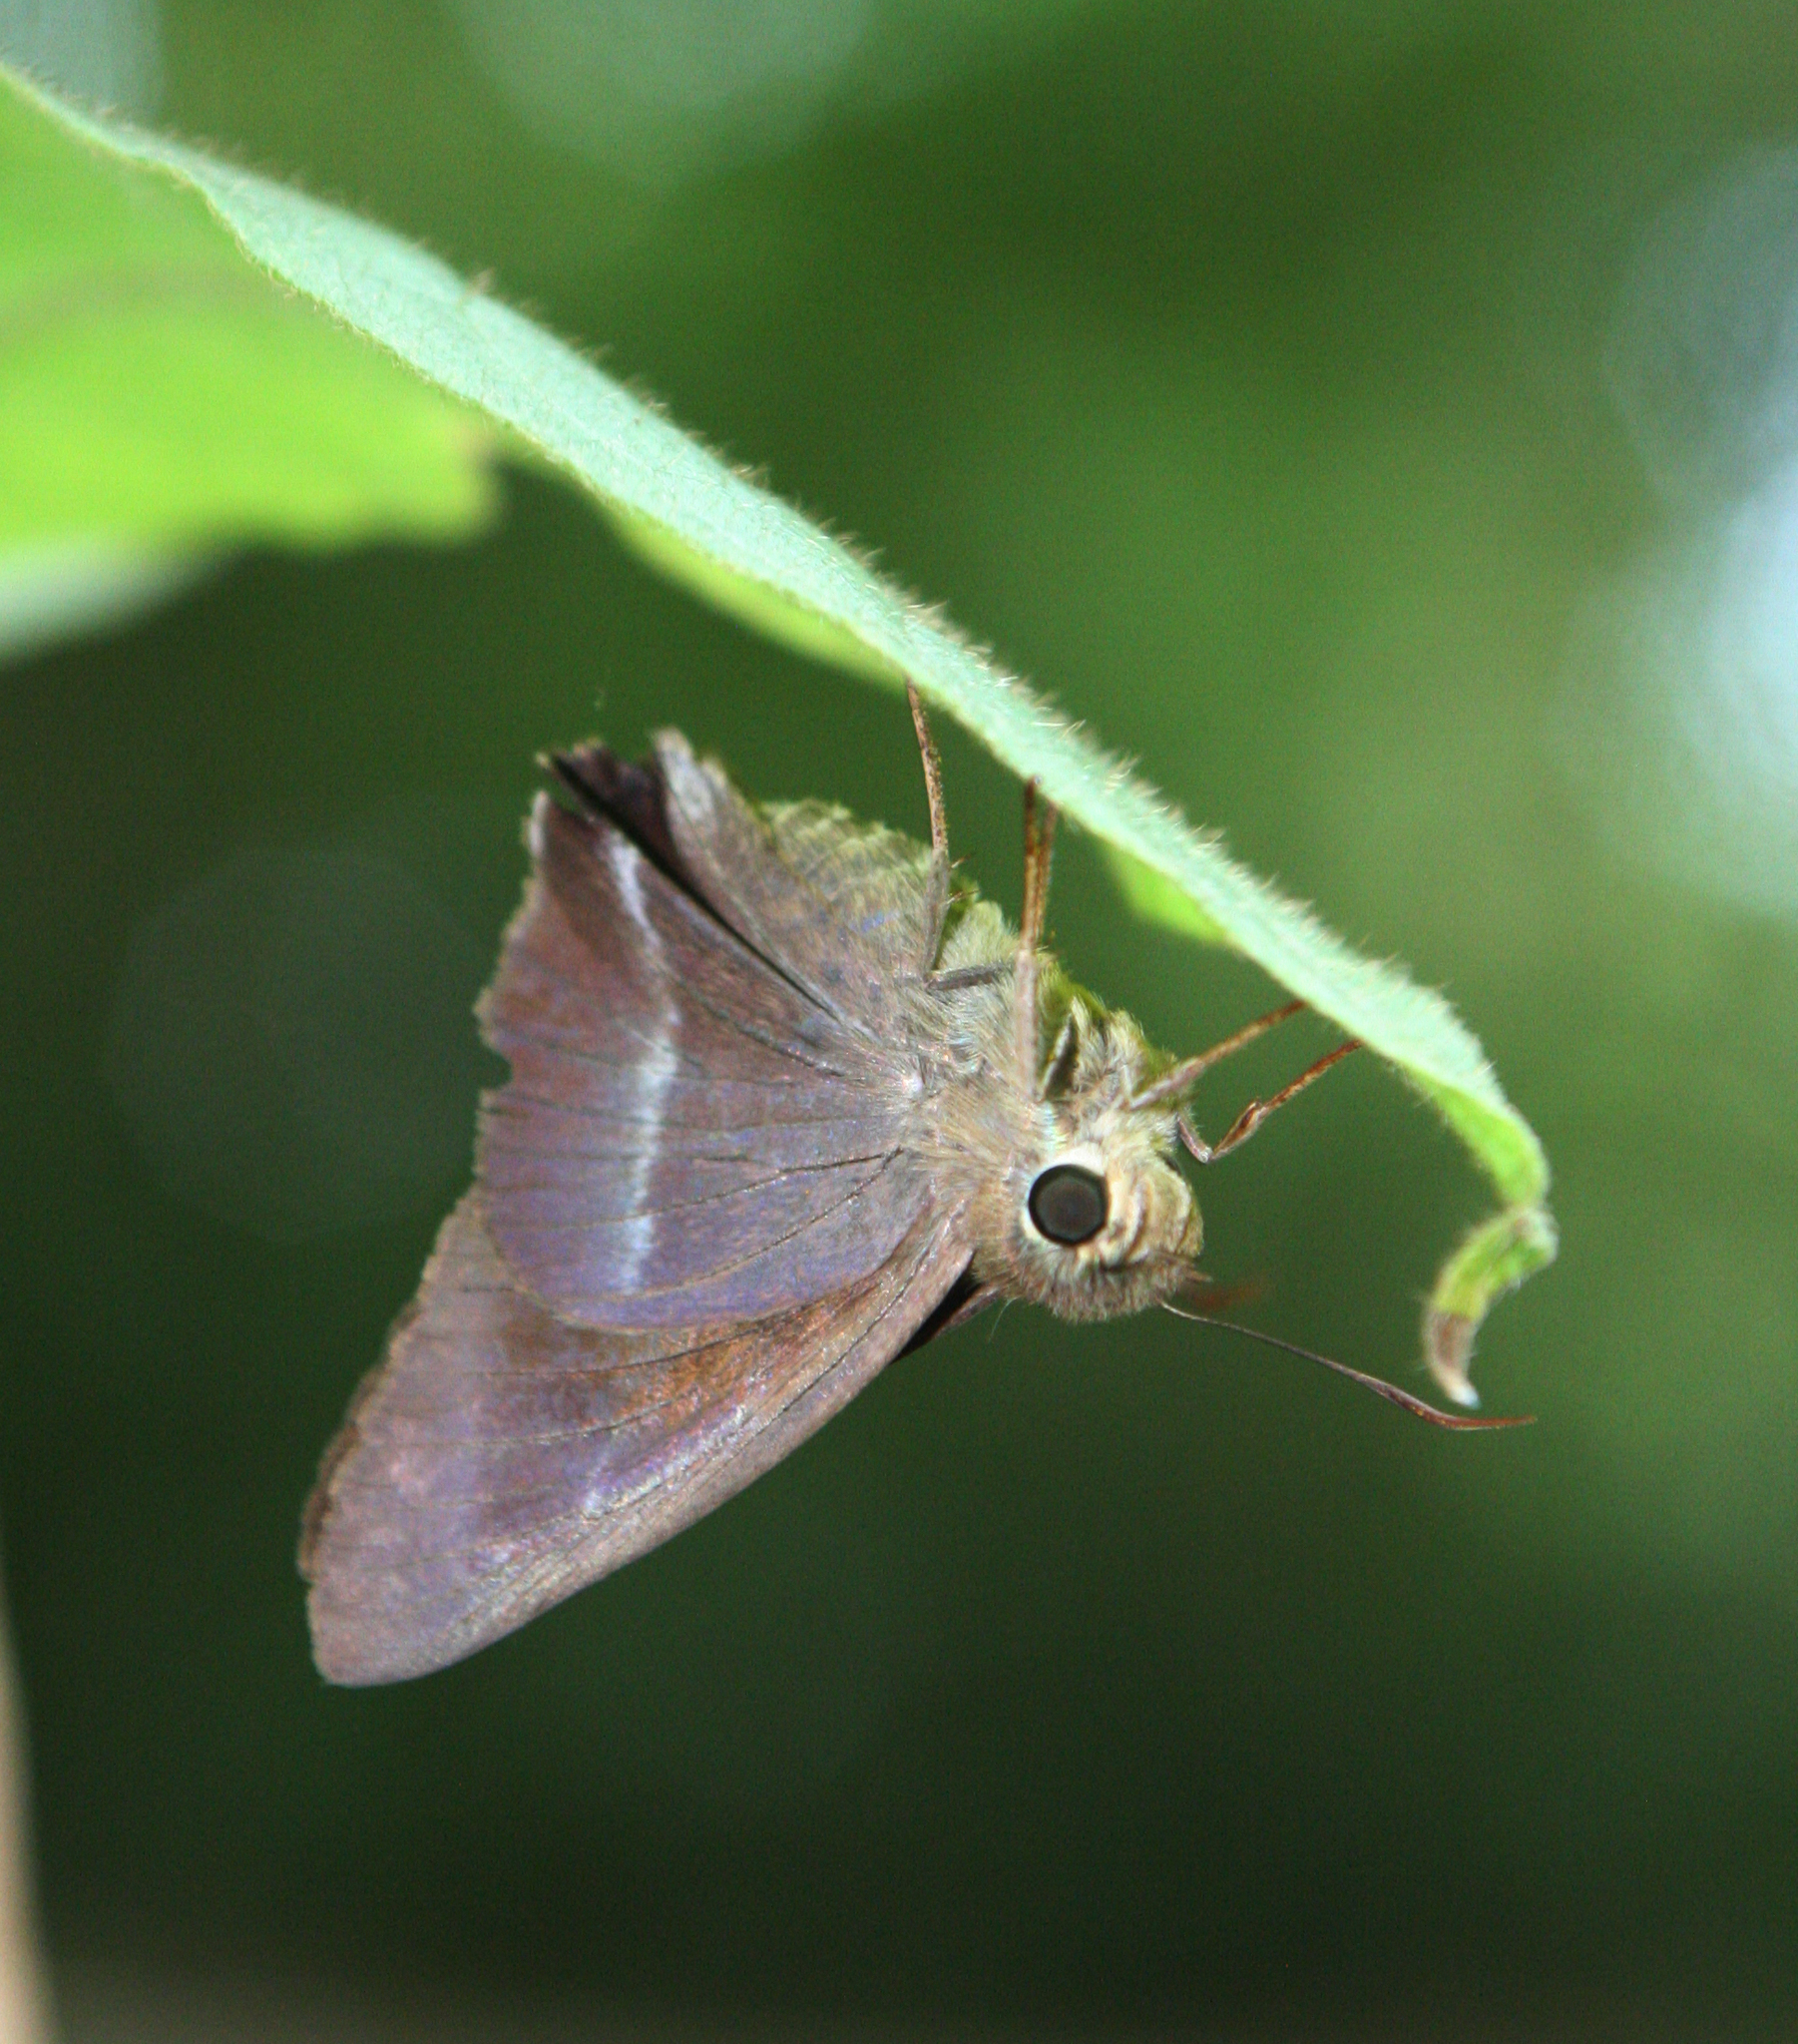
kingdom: Animalia
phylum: Arthropoda
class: Insecta
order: Lepidoptera
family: Hesperiidae
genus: Hasora
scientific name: Hasora chromus
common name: Common banded awl
